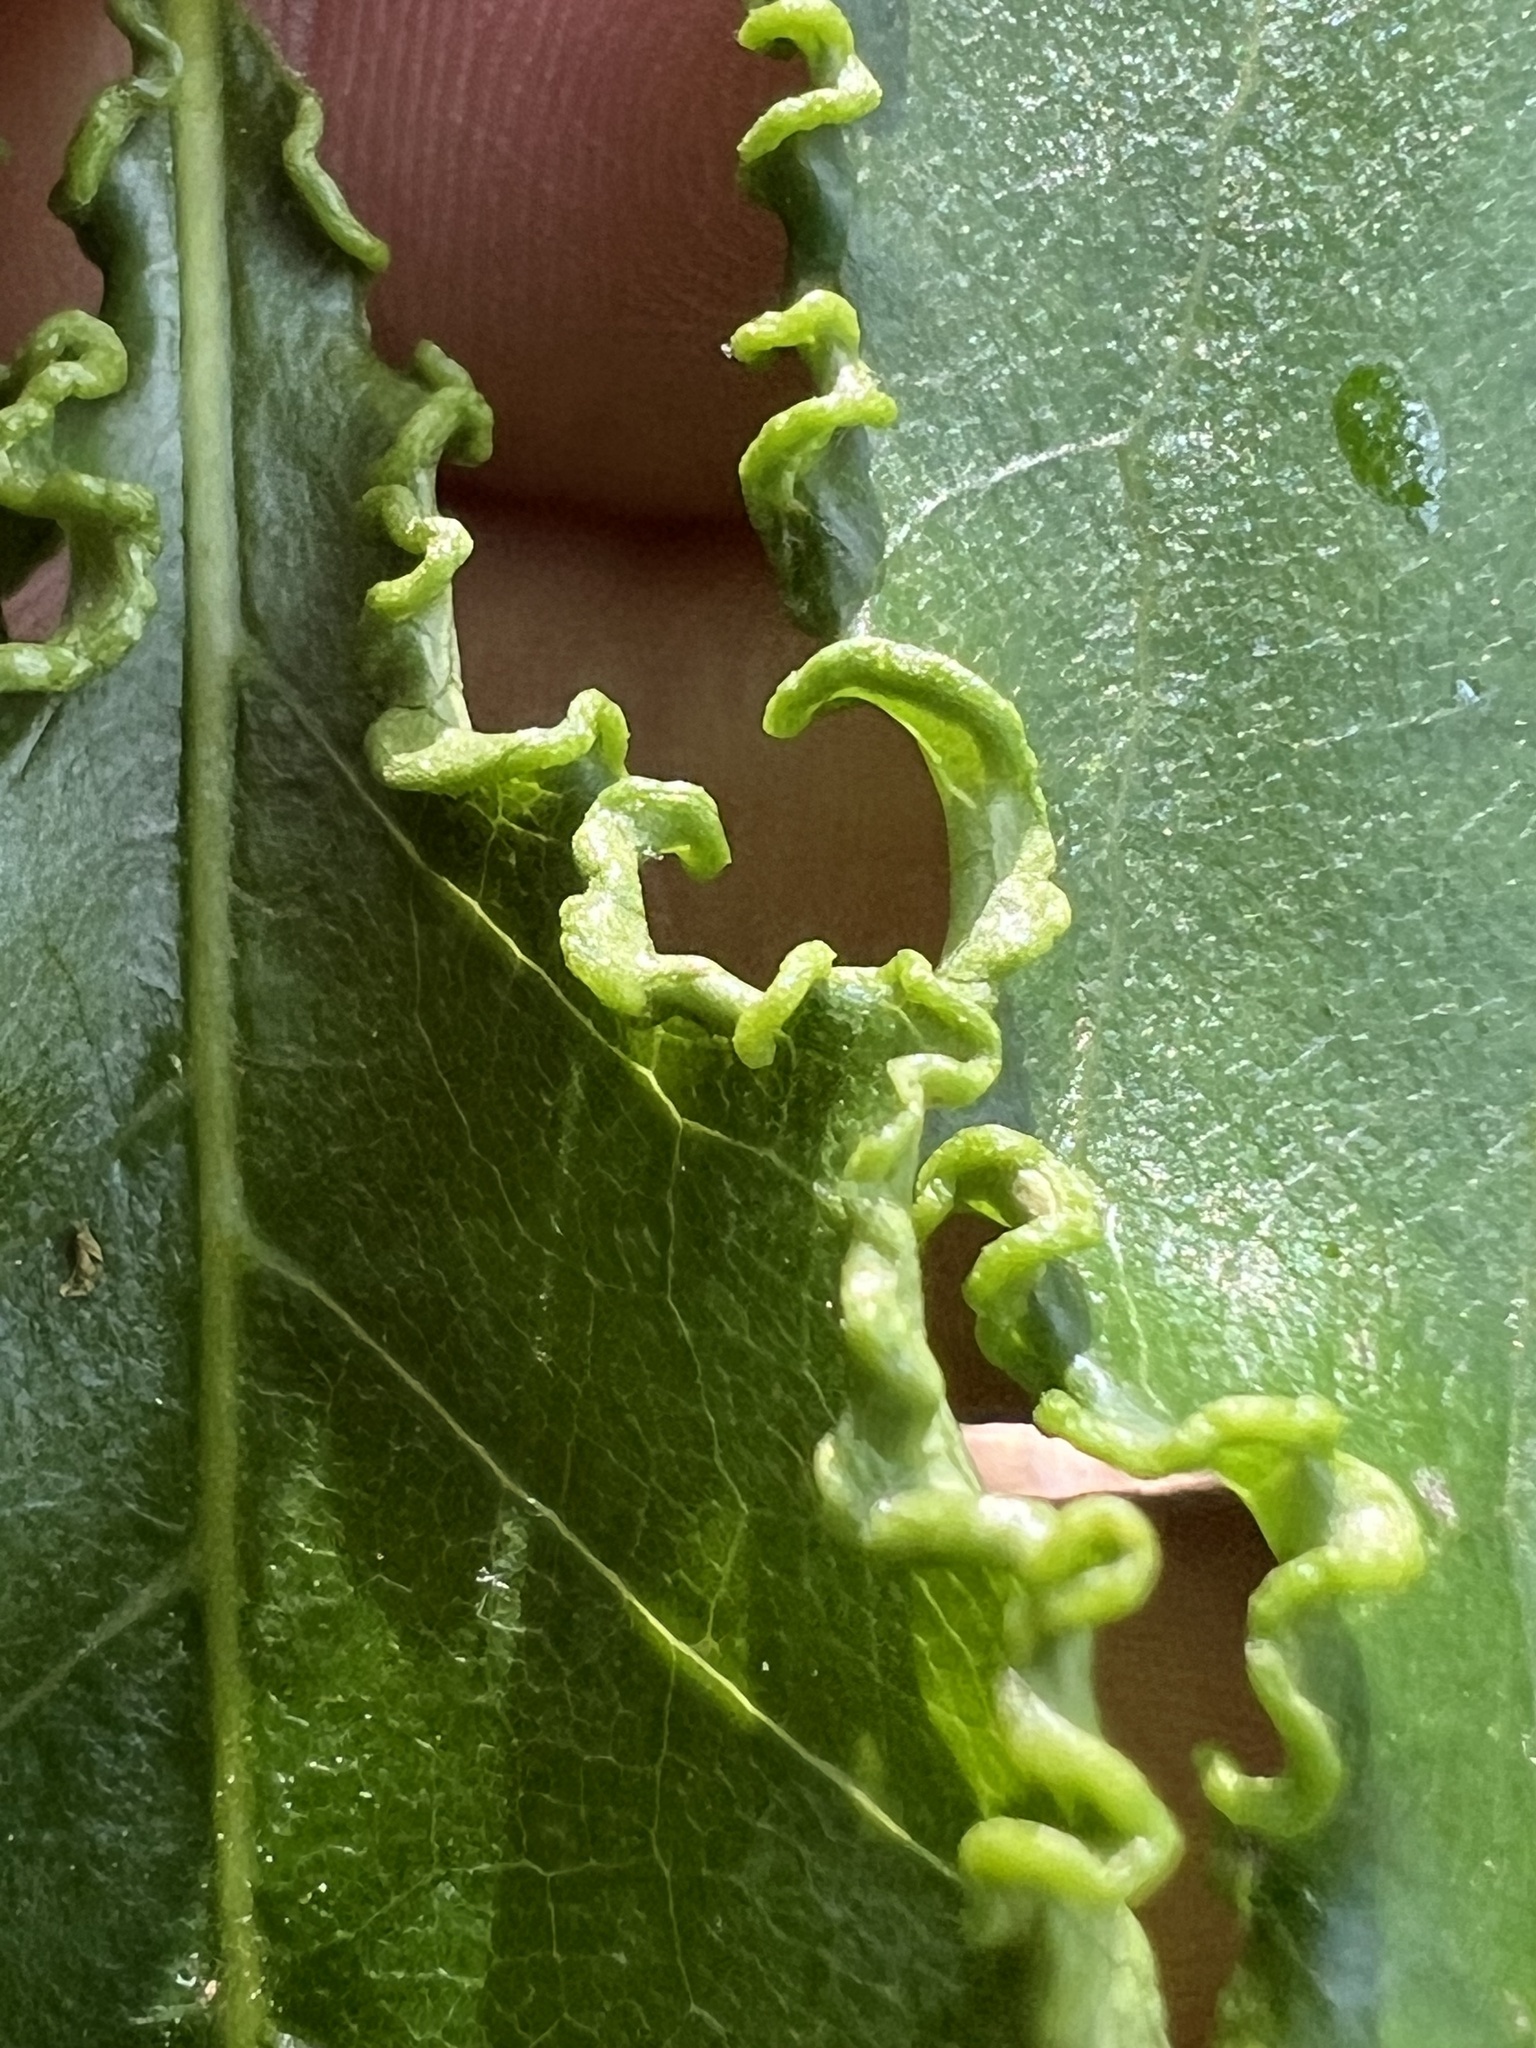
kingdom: Animalia
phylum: Arthropoda
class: Arachnida
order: Trombidiformes
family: Eriophyidae
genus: Aceria
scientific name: Aceria
